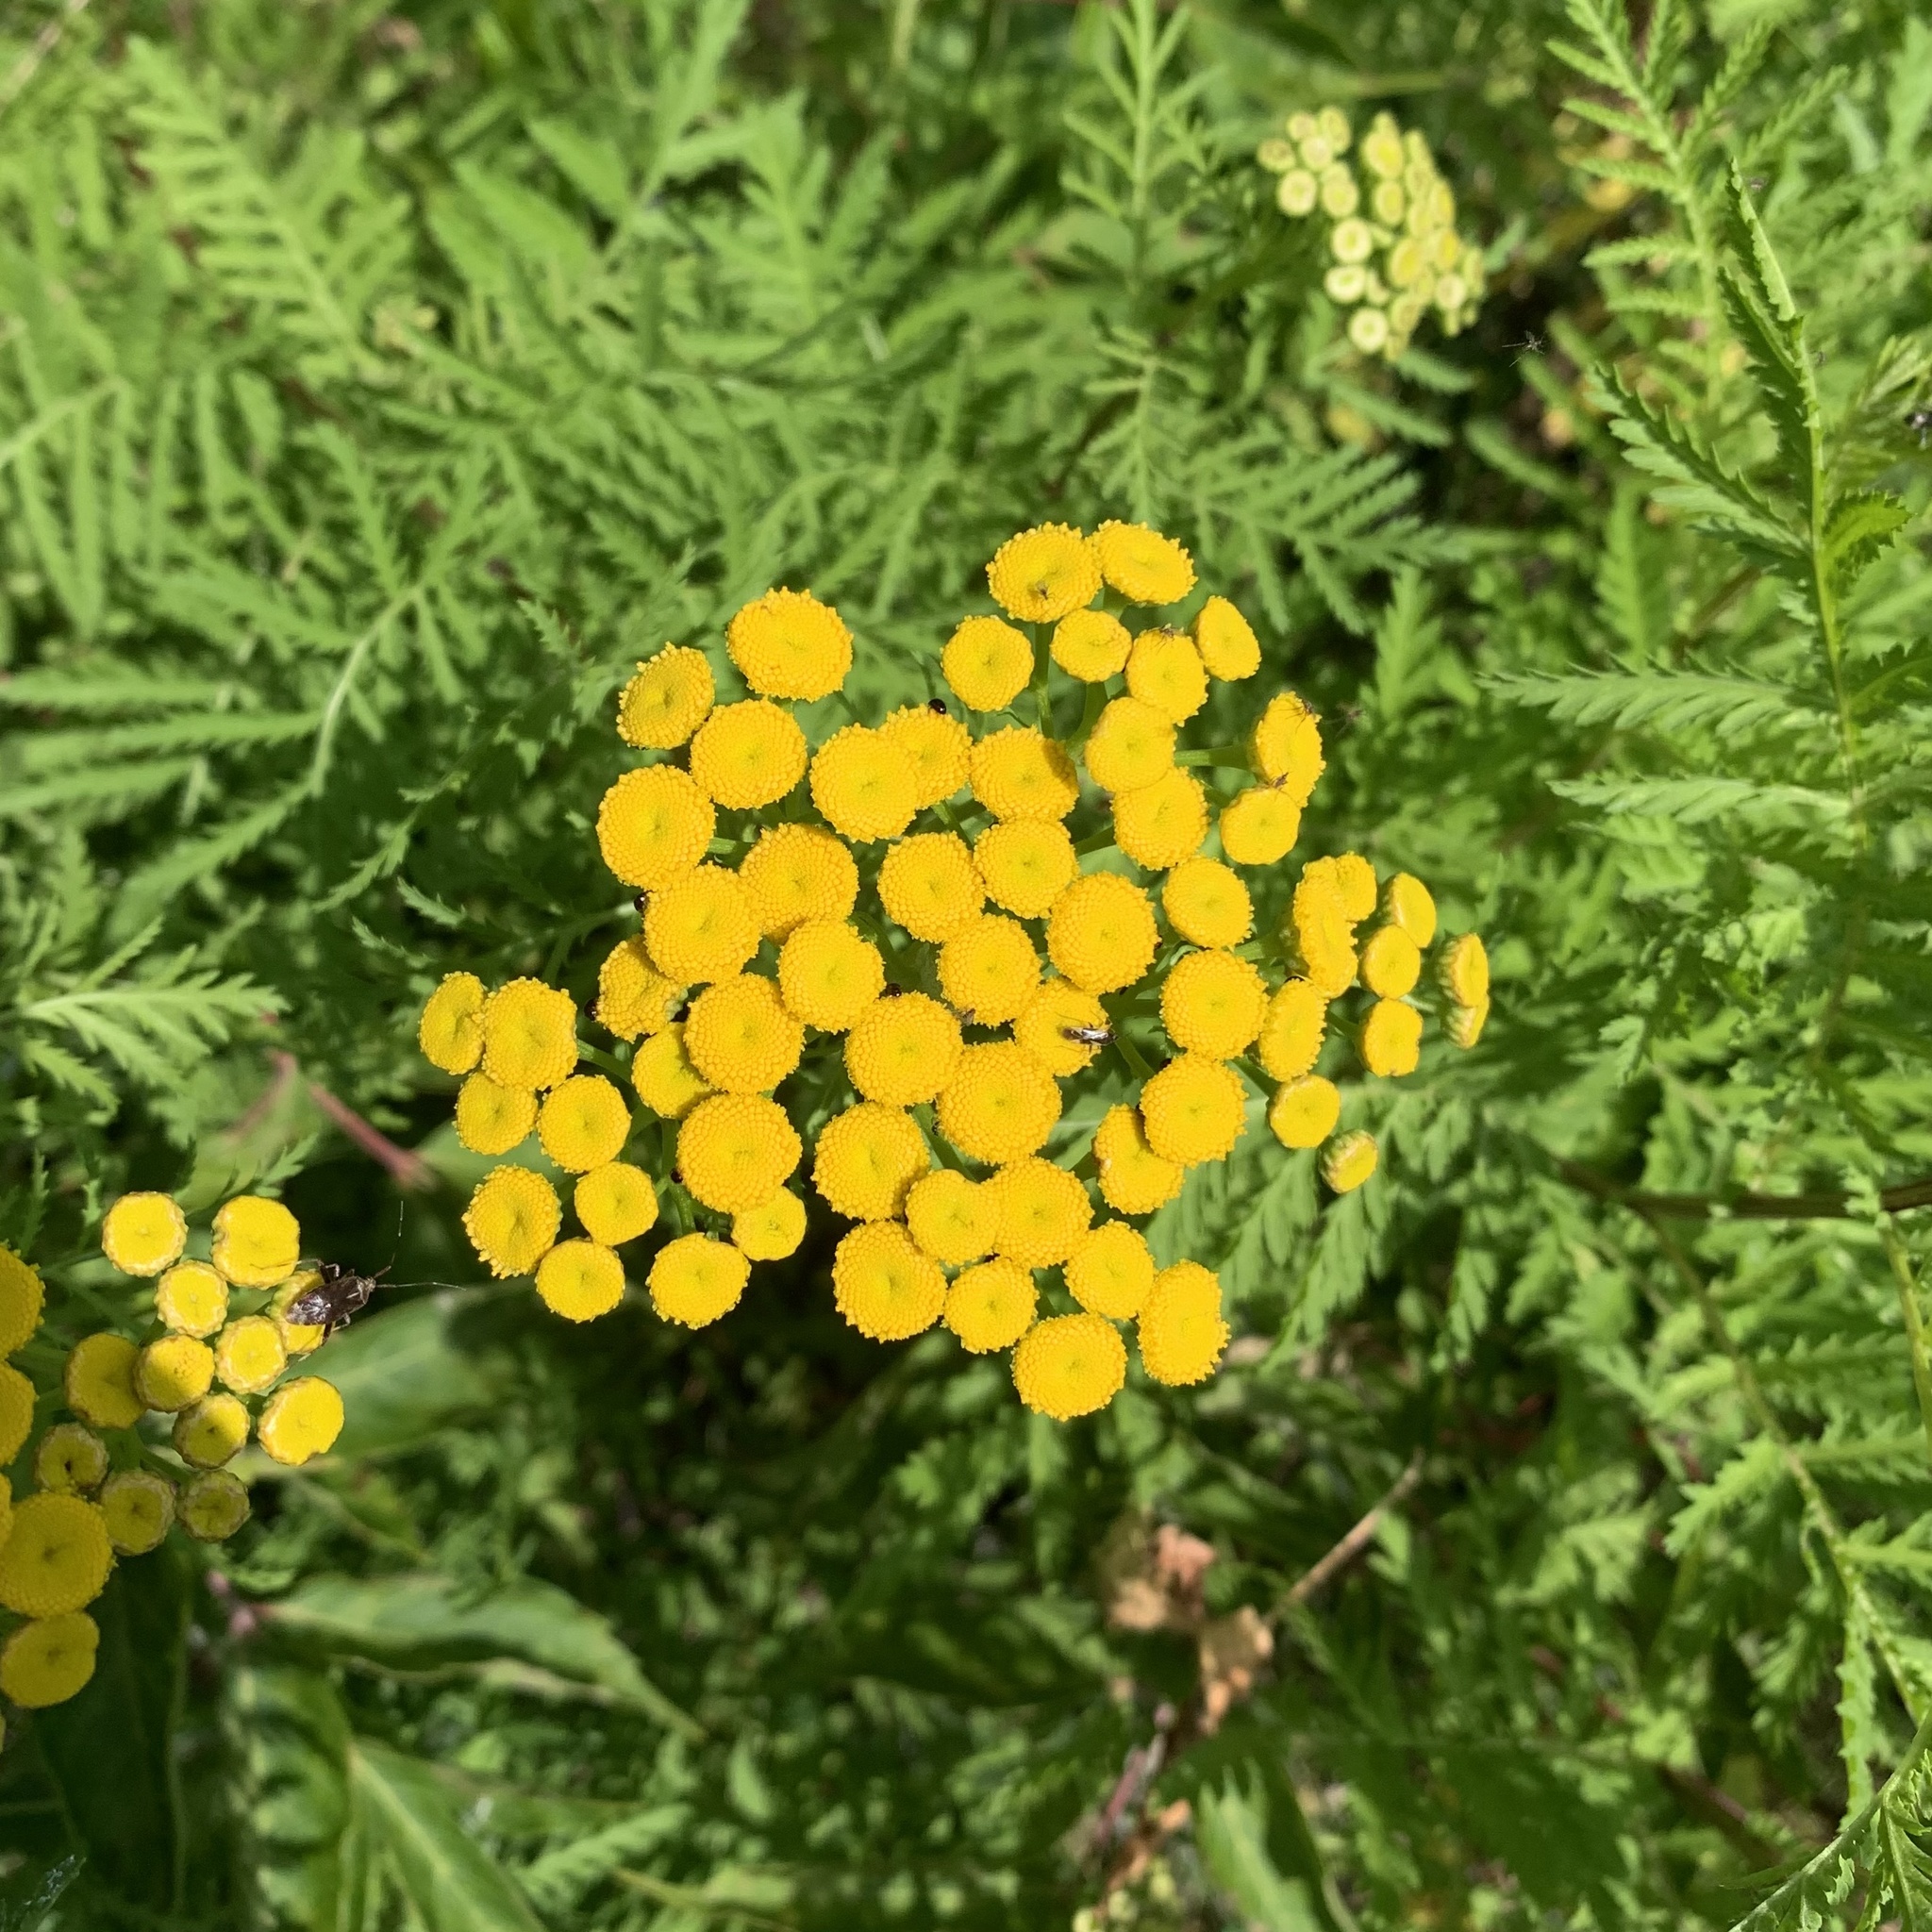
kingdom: Plantae
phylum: Tracheophyta
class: Magnoliopsida
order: Asterales
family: Asteraceae
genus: Tanacetum
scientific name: Tanacetum vulgare
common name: Common tansy
